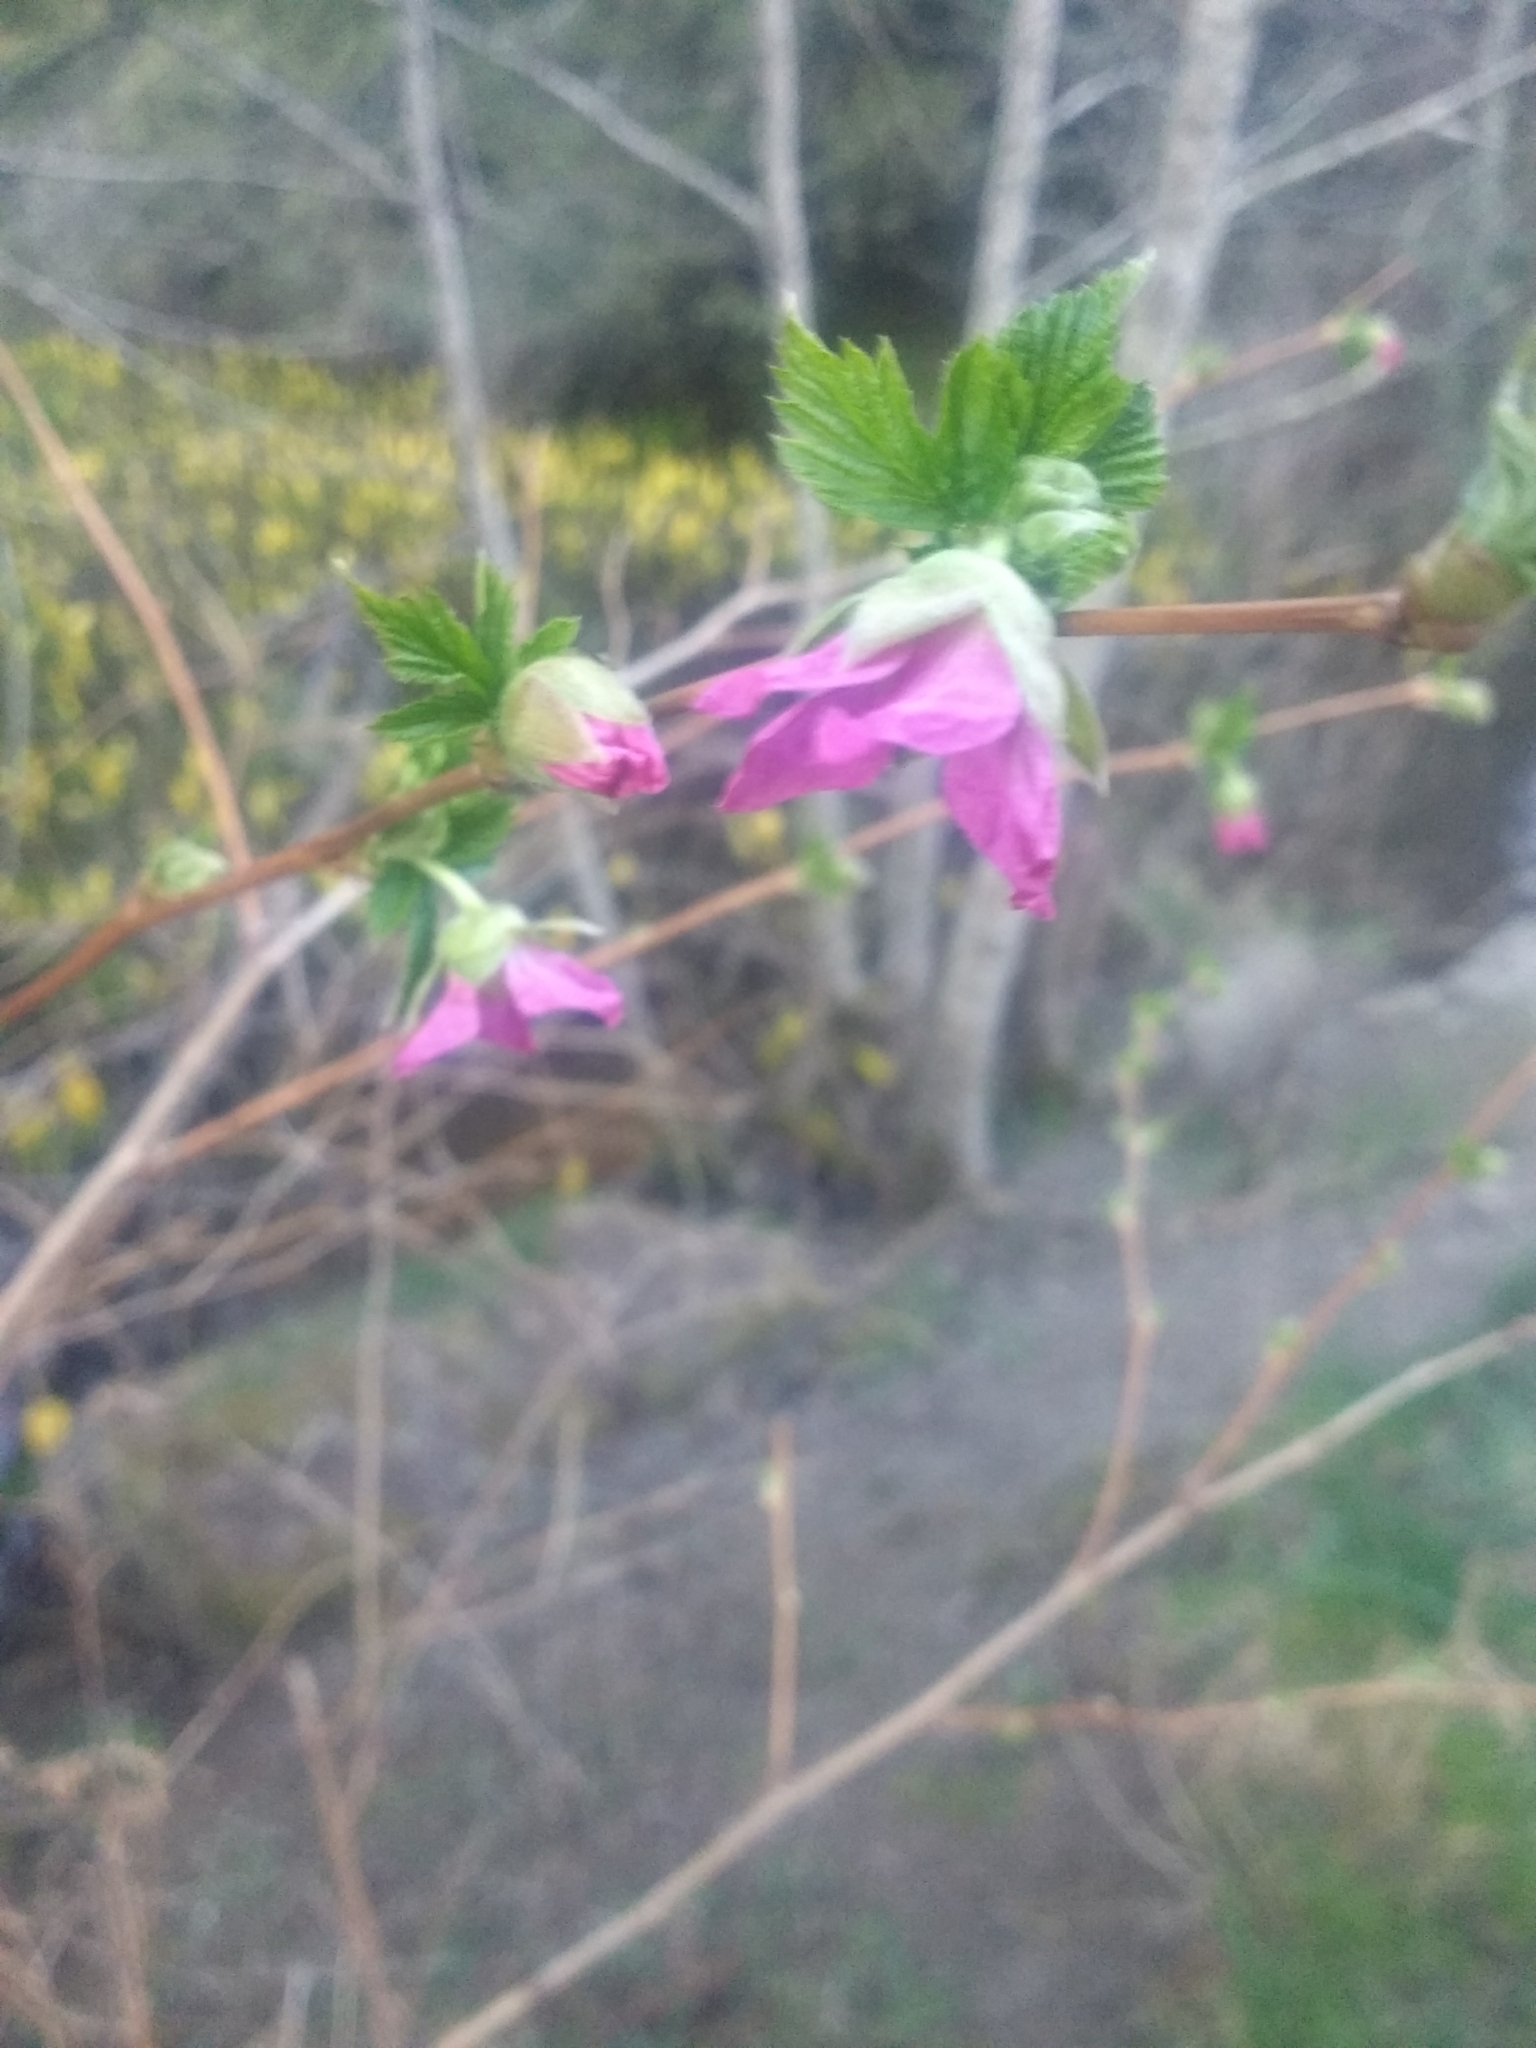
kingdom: Plantae
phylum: Tracheophyta
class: Magnoliopsida
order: Rosales
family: Rosaceae
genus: Rubus
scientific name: Rubus spectabilis
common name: Salmonberry
